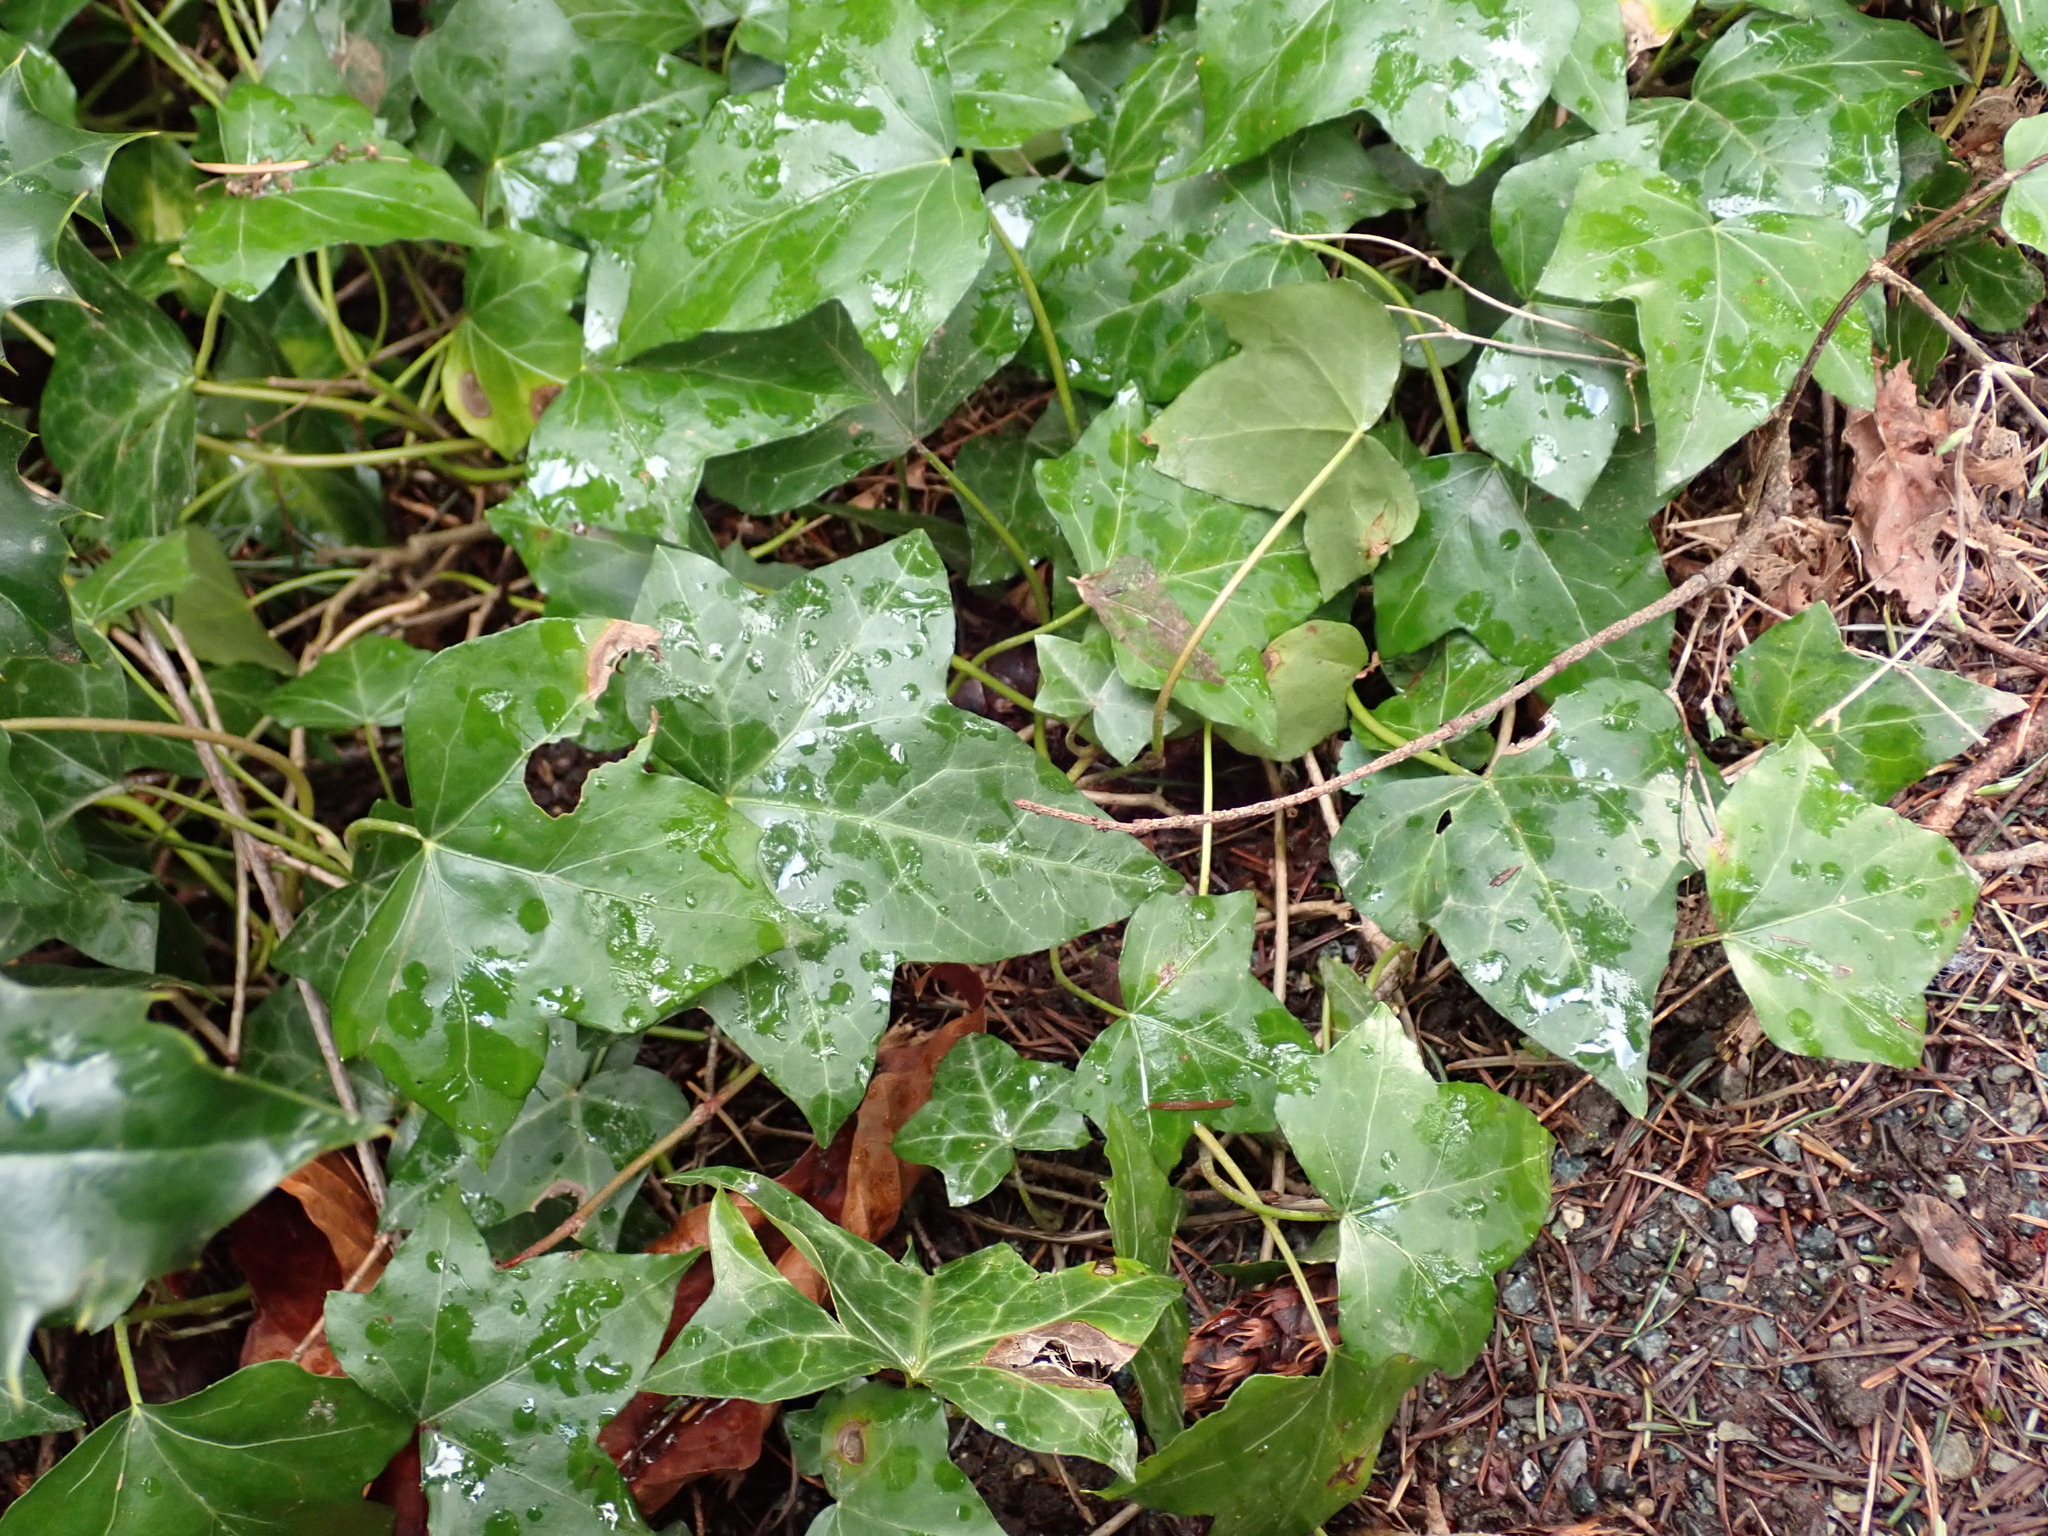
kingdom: Plantae
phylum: Tracheophyta
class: Magnoliopsida
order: Apiales
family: Araliaceae
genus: Hedera
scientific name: Hedera helix
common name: Ivy
